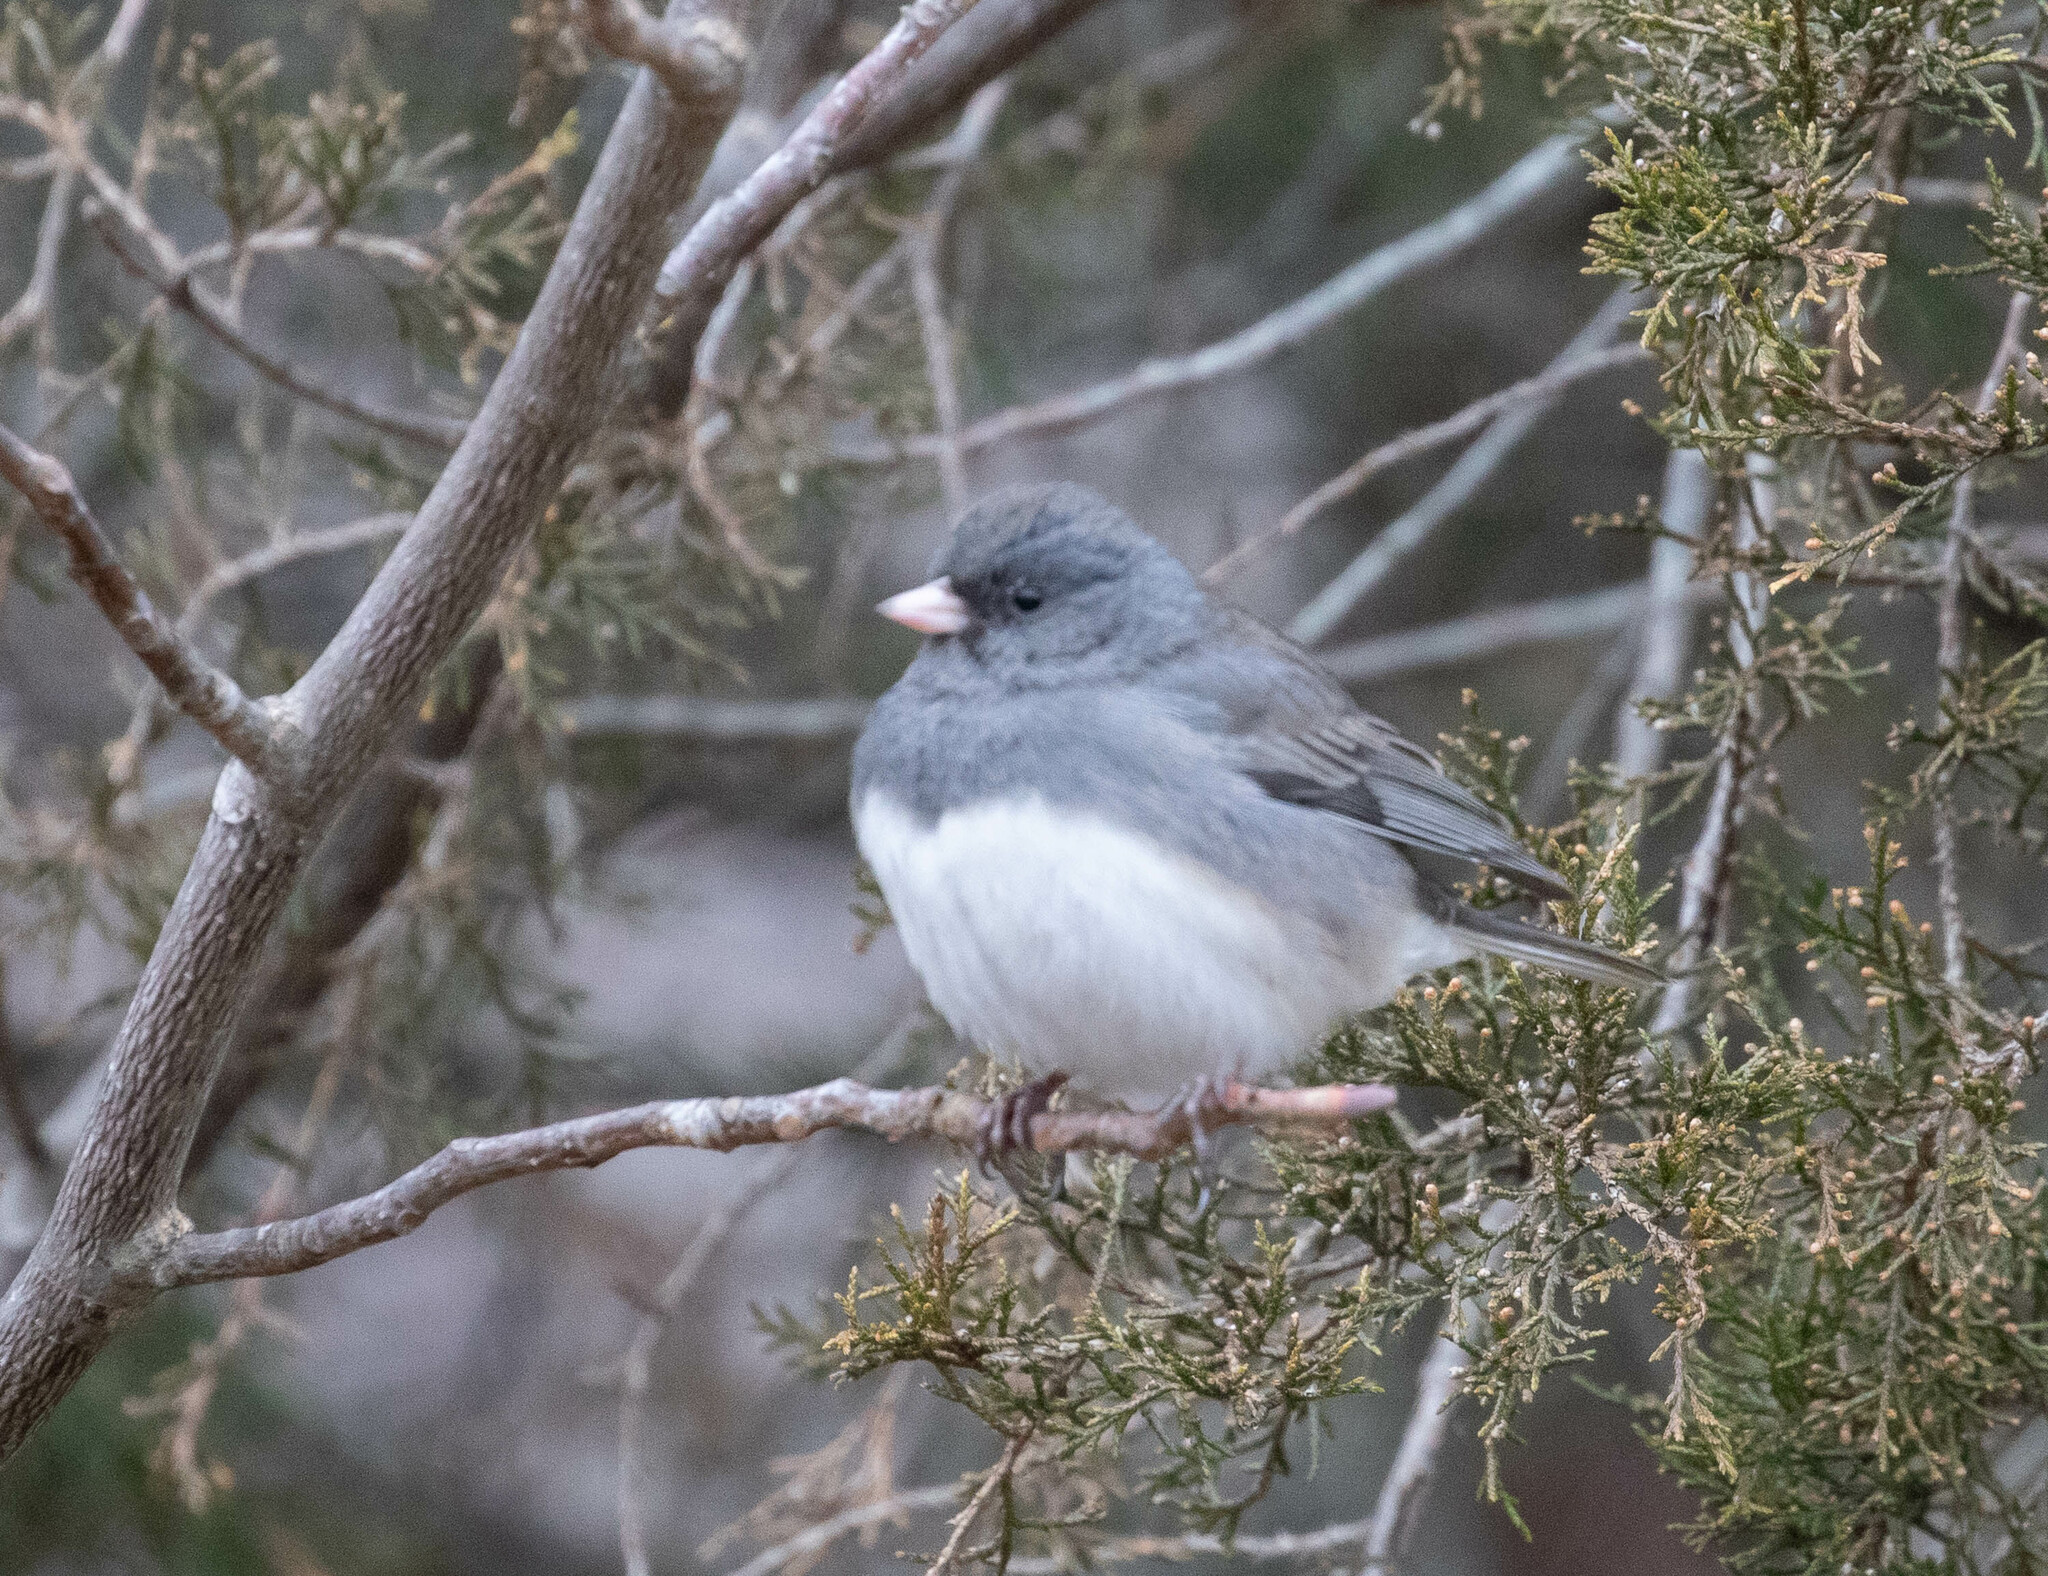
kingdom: Animalia
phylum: Chordata
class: Aves
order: Passeriformes
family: Passerellidae
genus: Junco
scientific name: Junco hyemalis
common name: Dark-eyed junco
